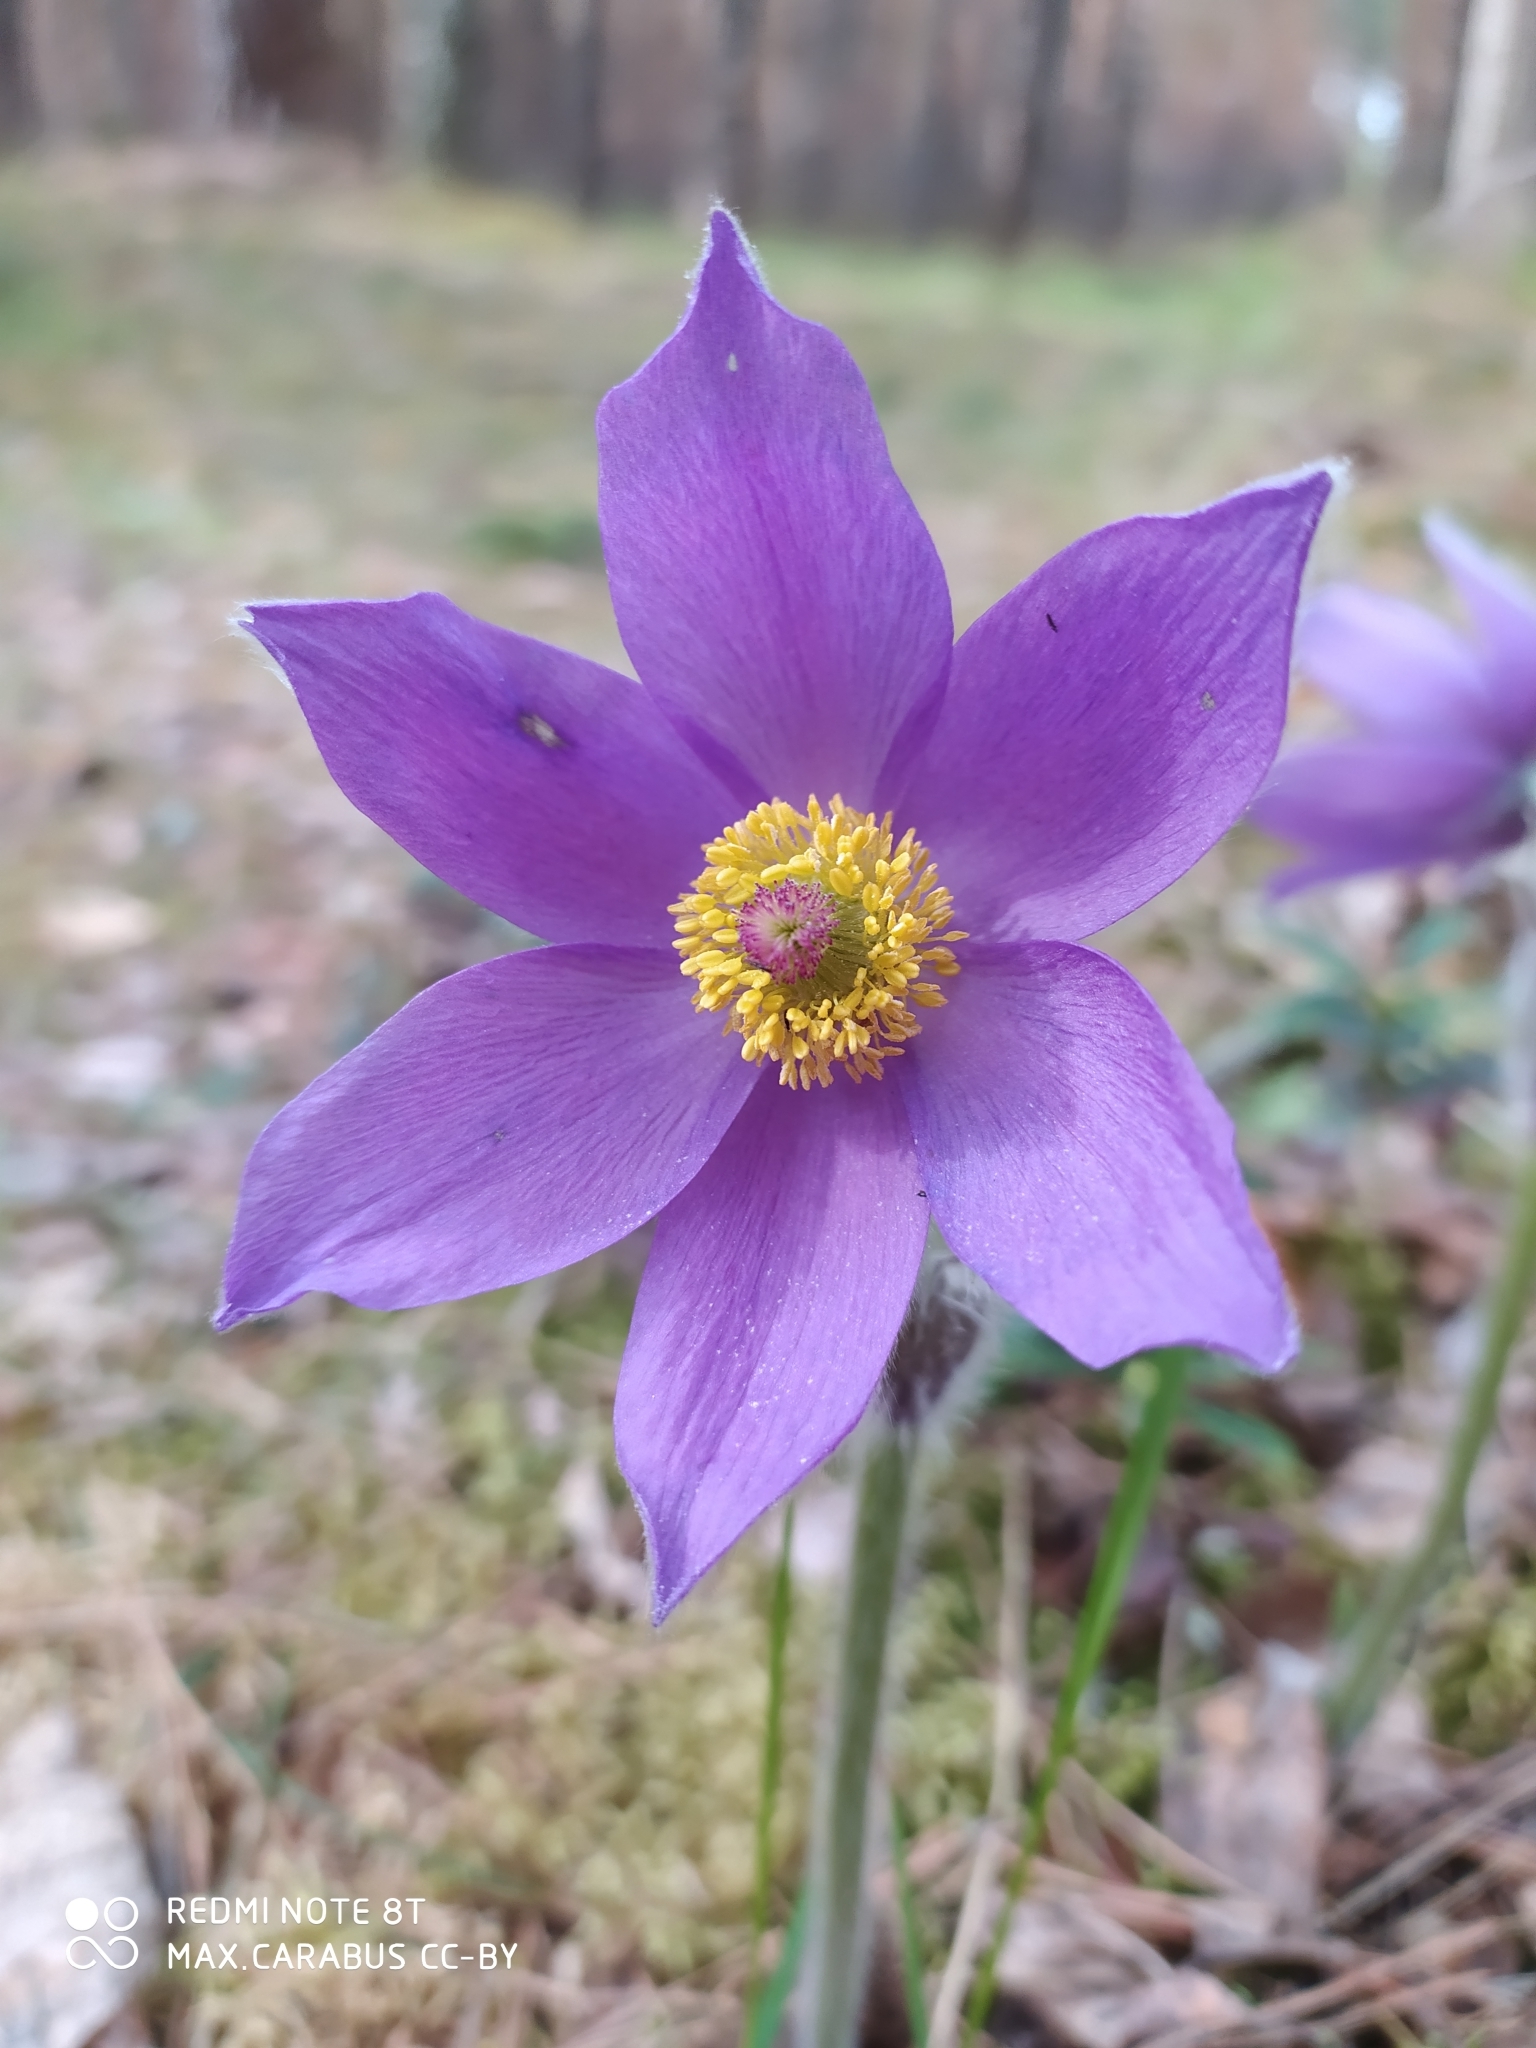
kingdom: Plantae
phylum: Tracheophyta
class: Magnoliopsida
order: Ranunculales
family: Ranunculaceae
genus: Pulsatilla
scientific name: Pulsatilla patens
